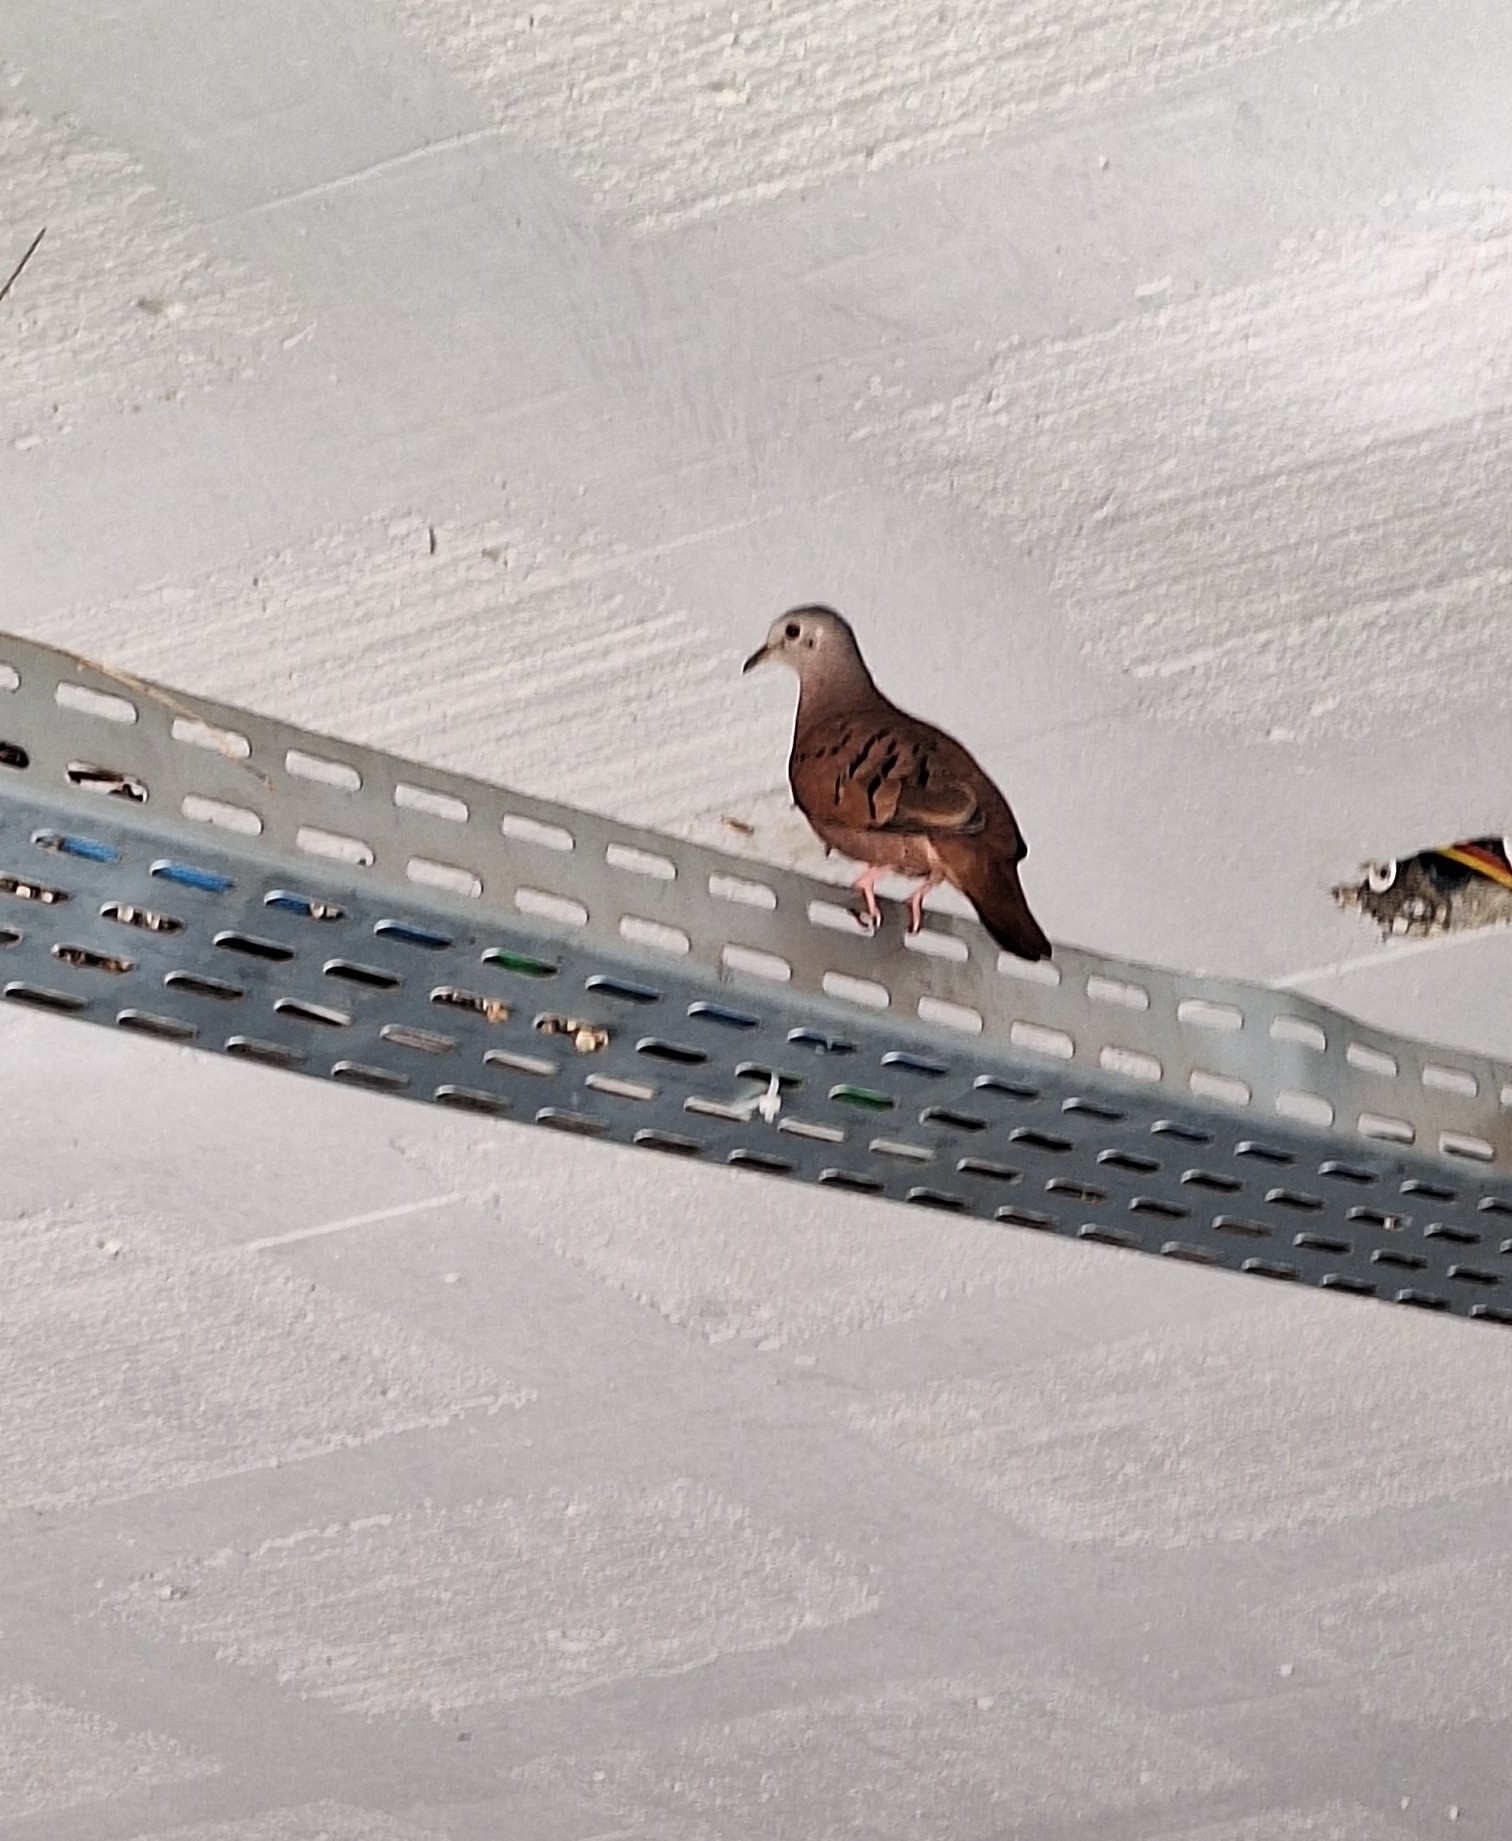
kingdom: Animalia
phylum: Chordata
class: Aves
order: Columbiformes
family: Columbidae
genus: Columbina
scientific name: Columbina talpacoti
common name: Ruddy ground dove
